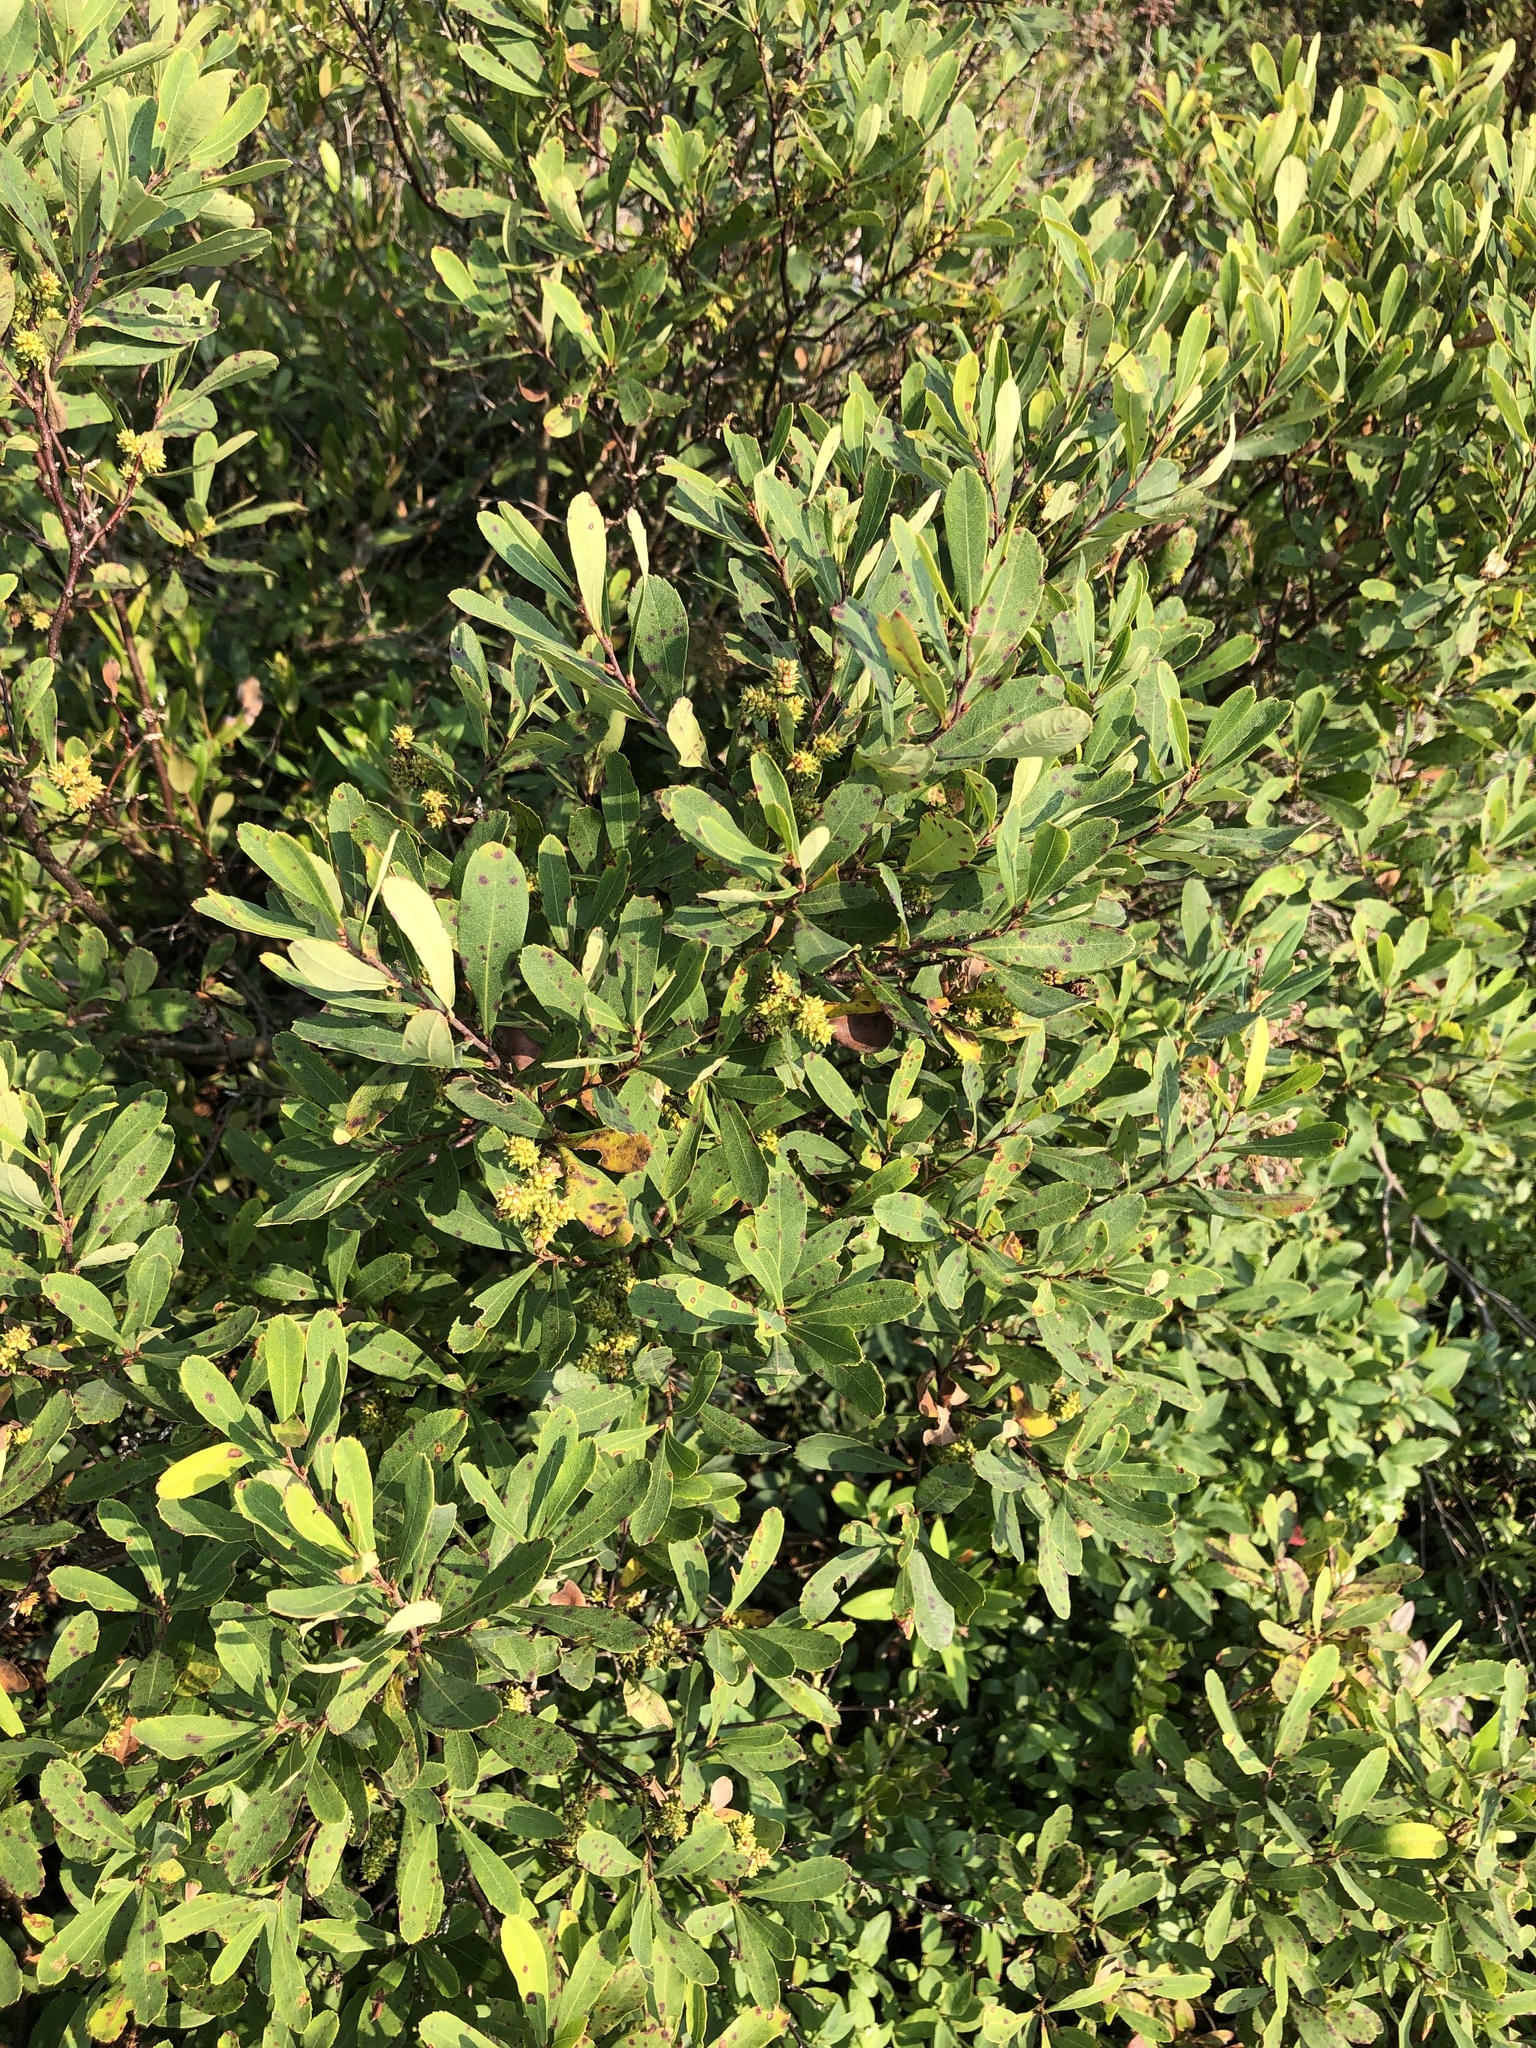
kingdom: Plantae
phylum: Tracheophyta
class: Magnoliopsida
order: Fagales
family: Myricaceae
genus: Myrica
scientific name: Myrica gale
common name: Sweet gale
